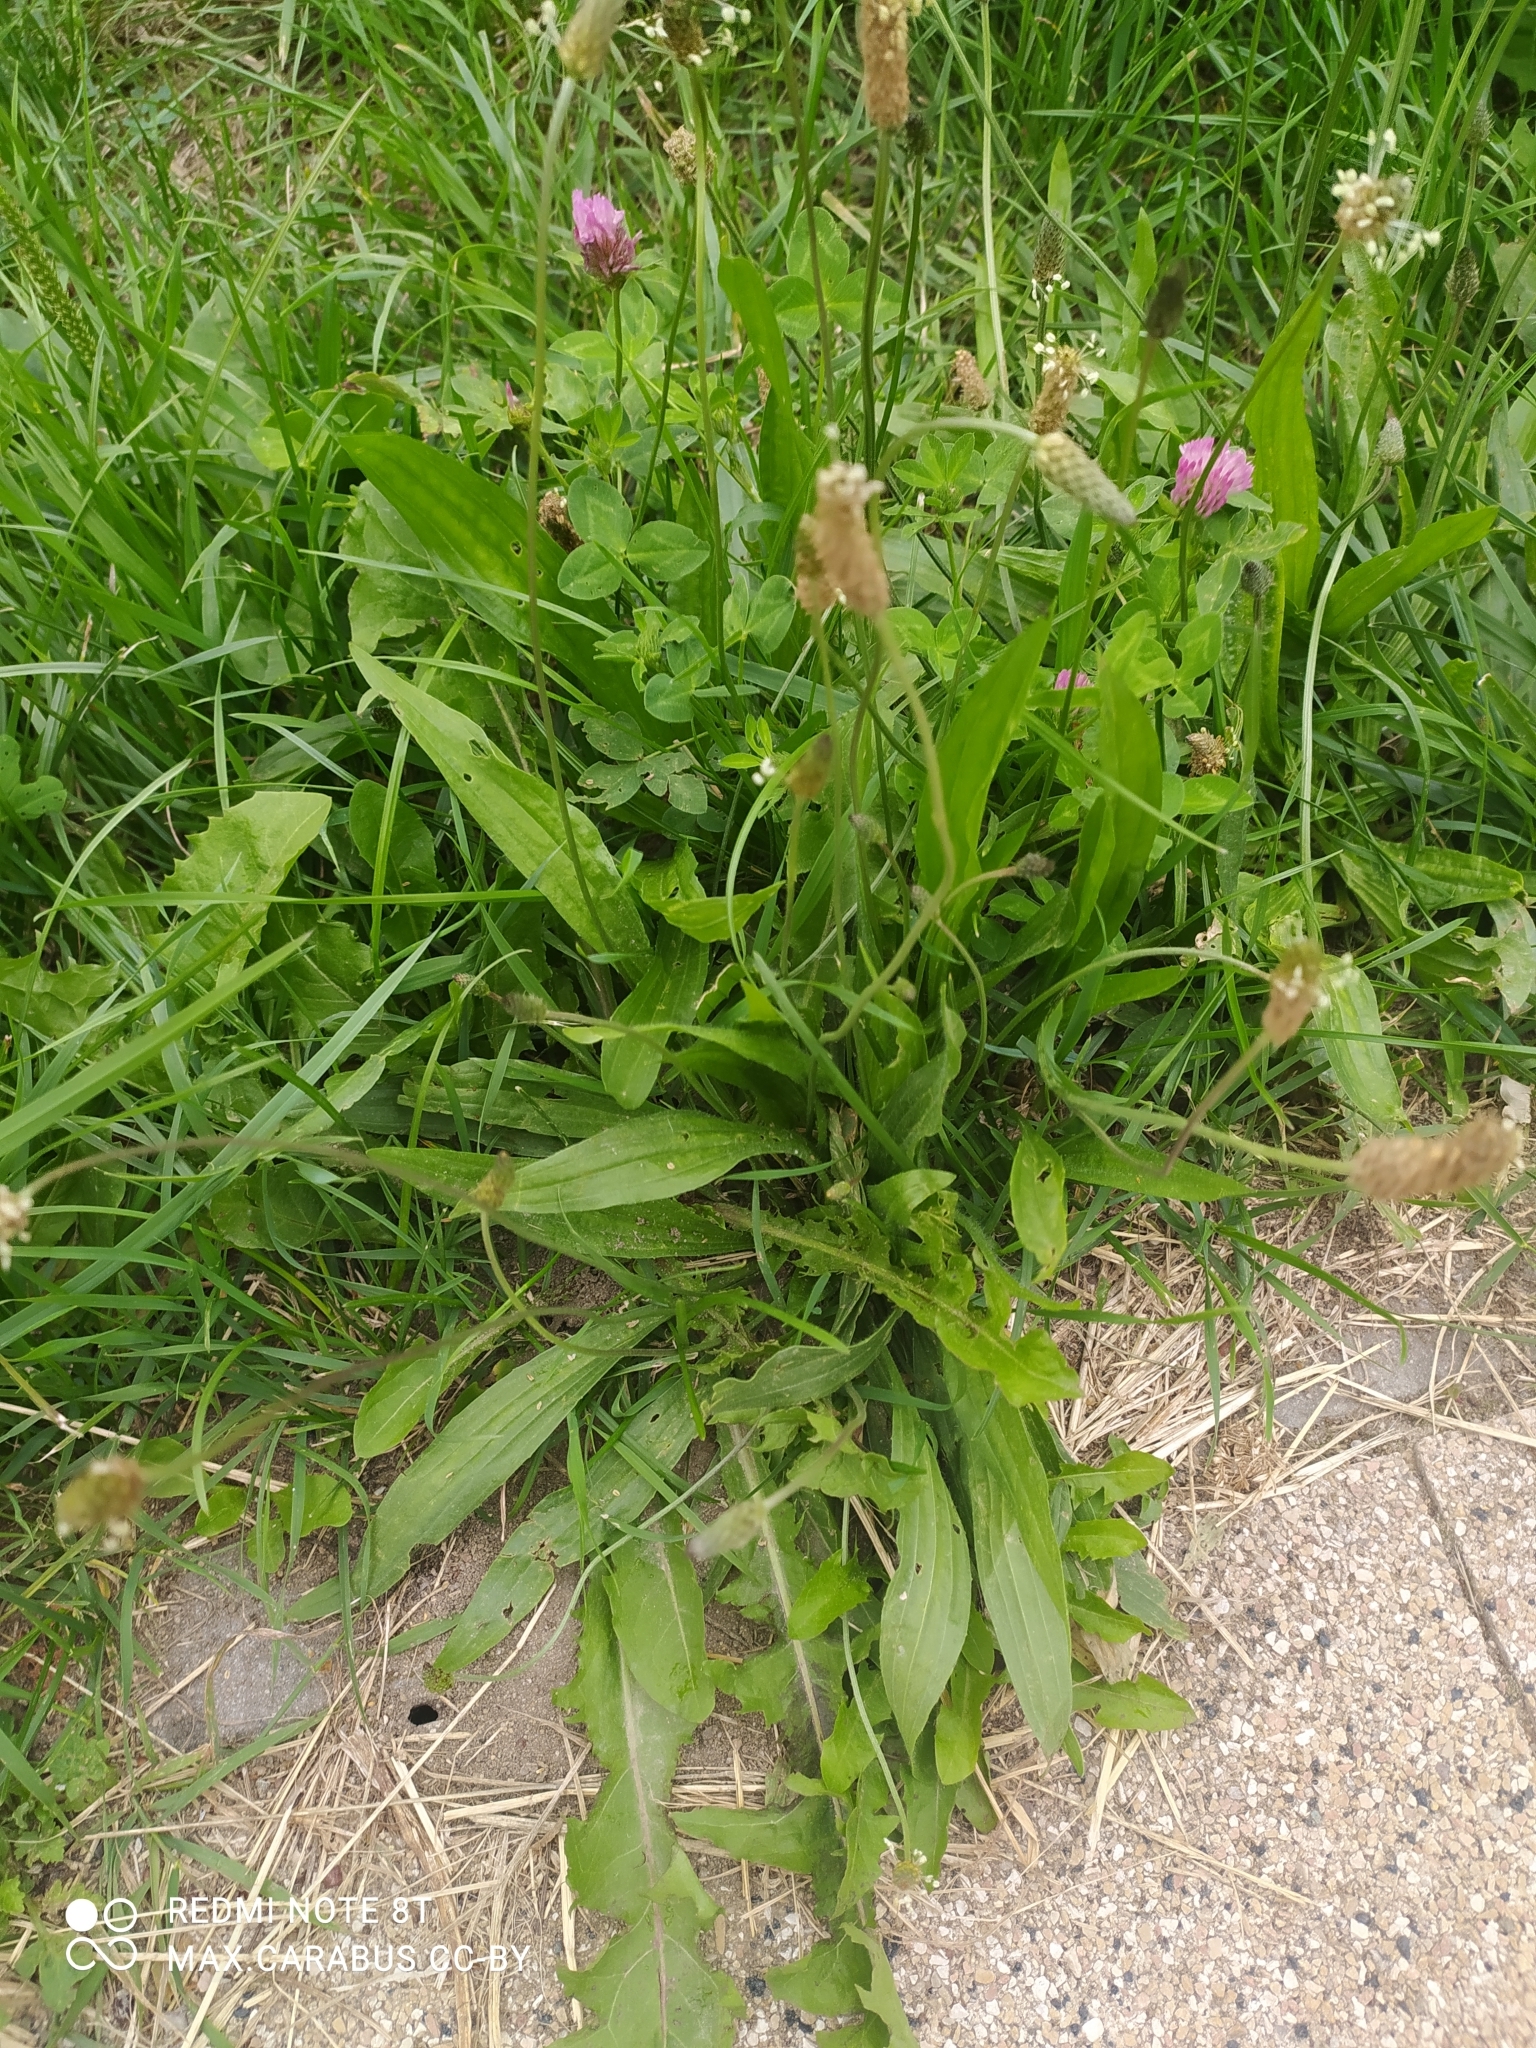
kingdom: Plantae
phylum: Tracheophyta
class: Magnoliopsida
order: Lamiales
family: Plantaginaceae
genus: Plantago
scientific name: Plantago lanceolata
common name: Ribwort plantain
